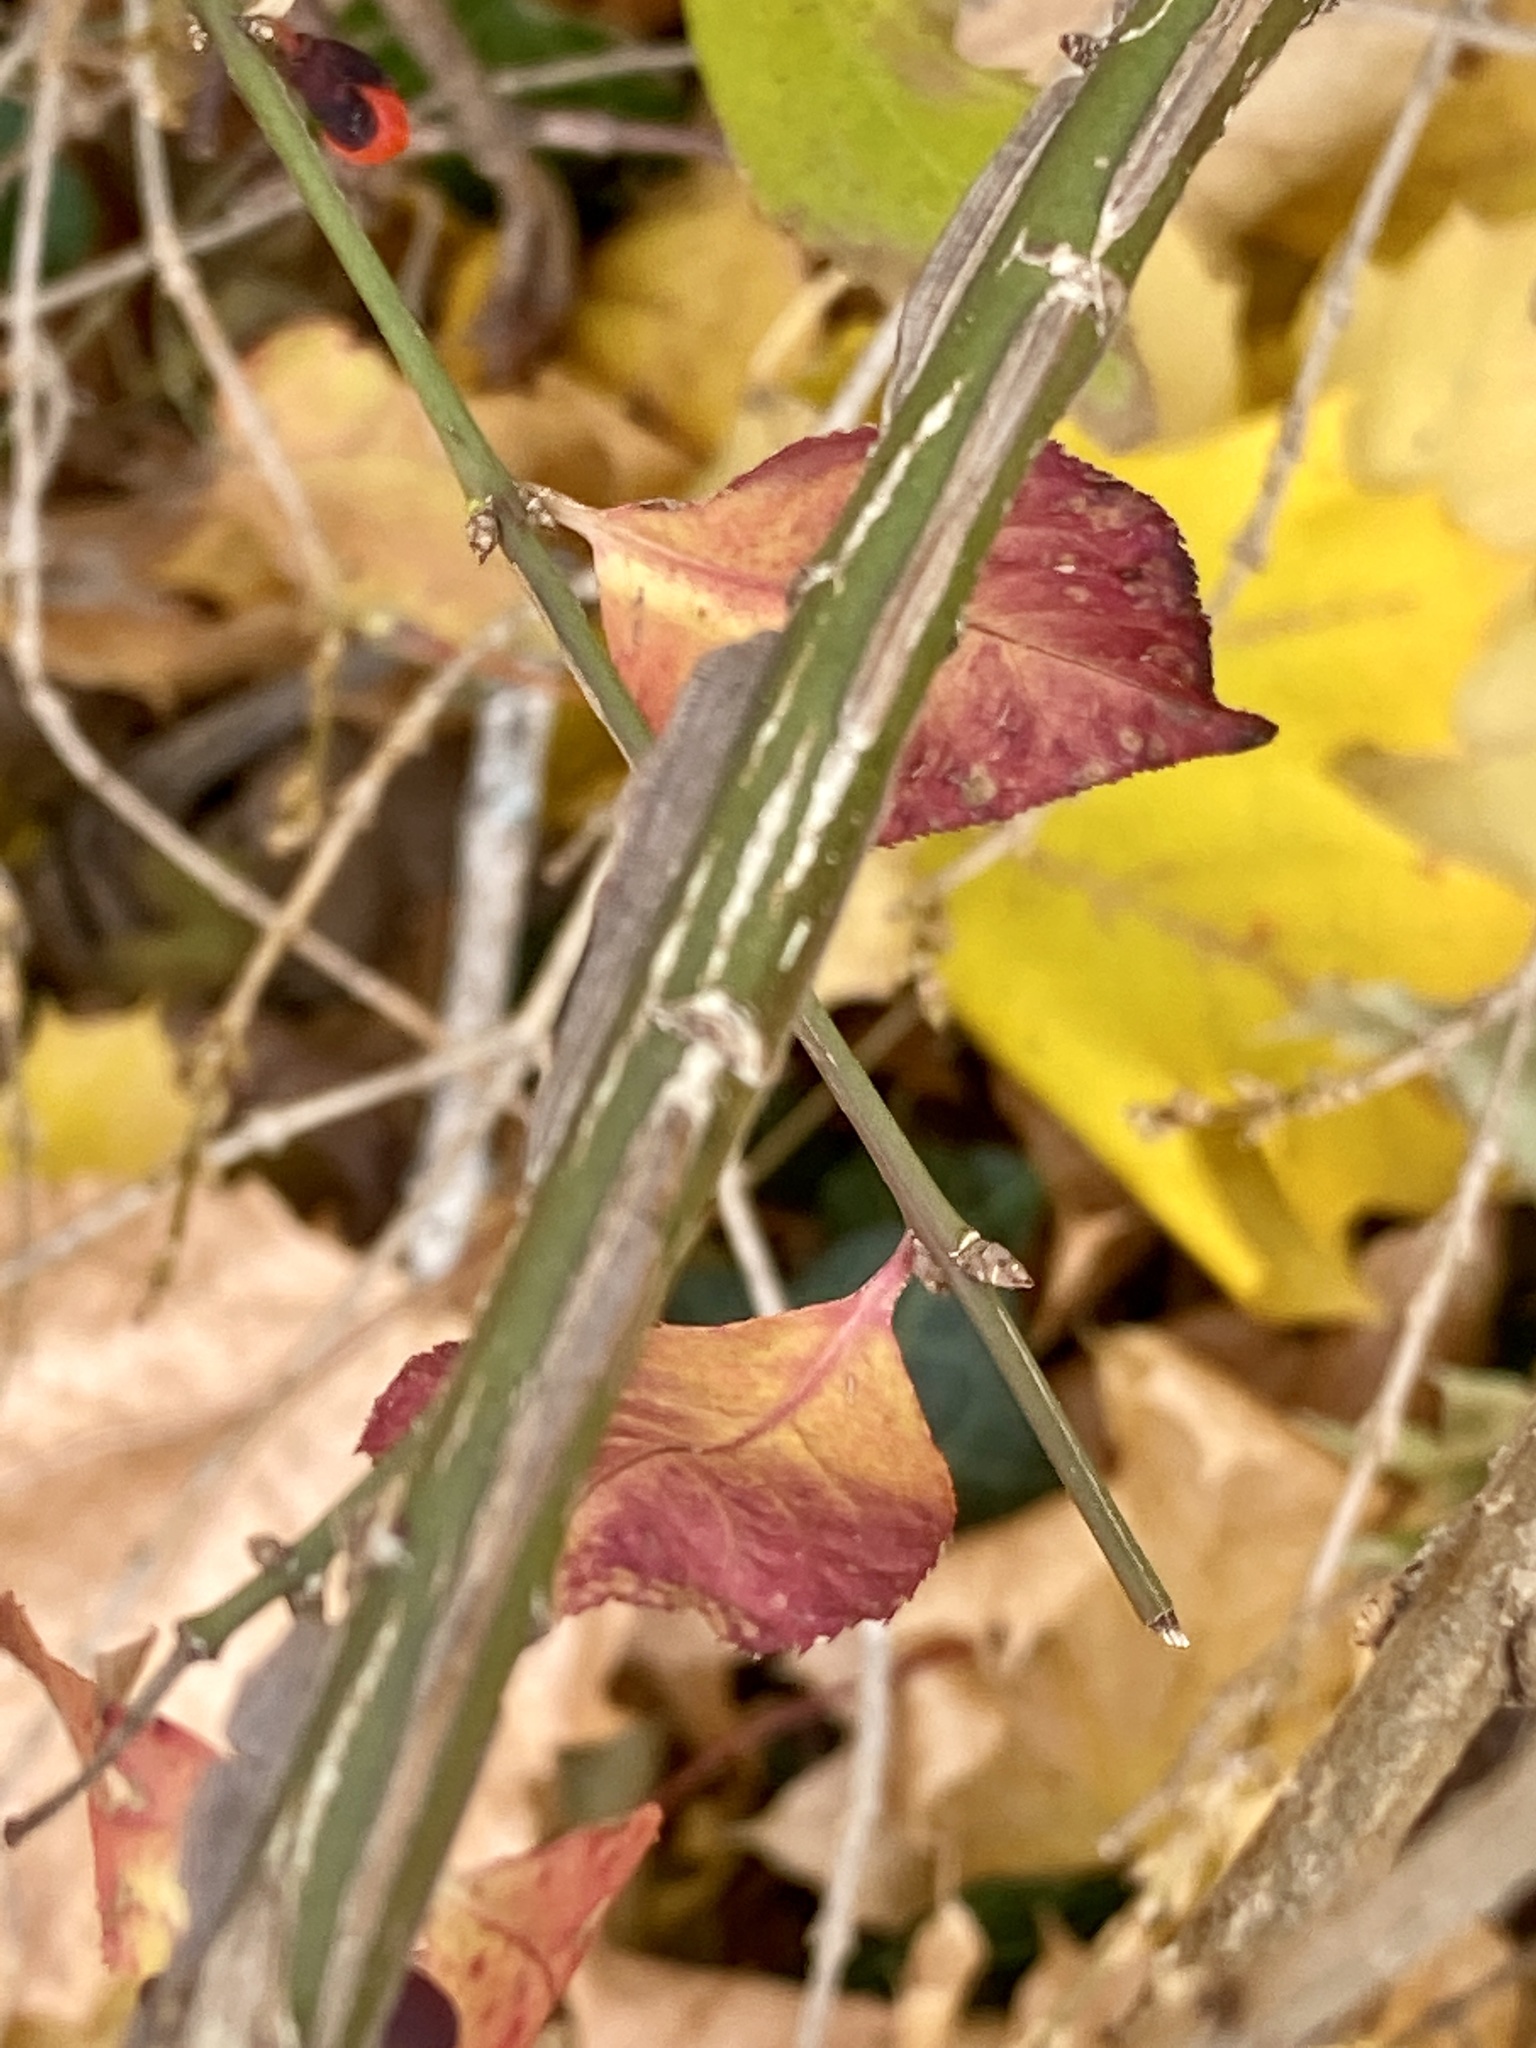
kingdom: Plantae
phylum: Tracheophyta
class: Magnoliopsida
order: Celastrales
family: Celastraceae
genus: Euonymus
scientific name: Euonymus alatus
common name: Winged euonymus
